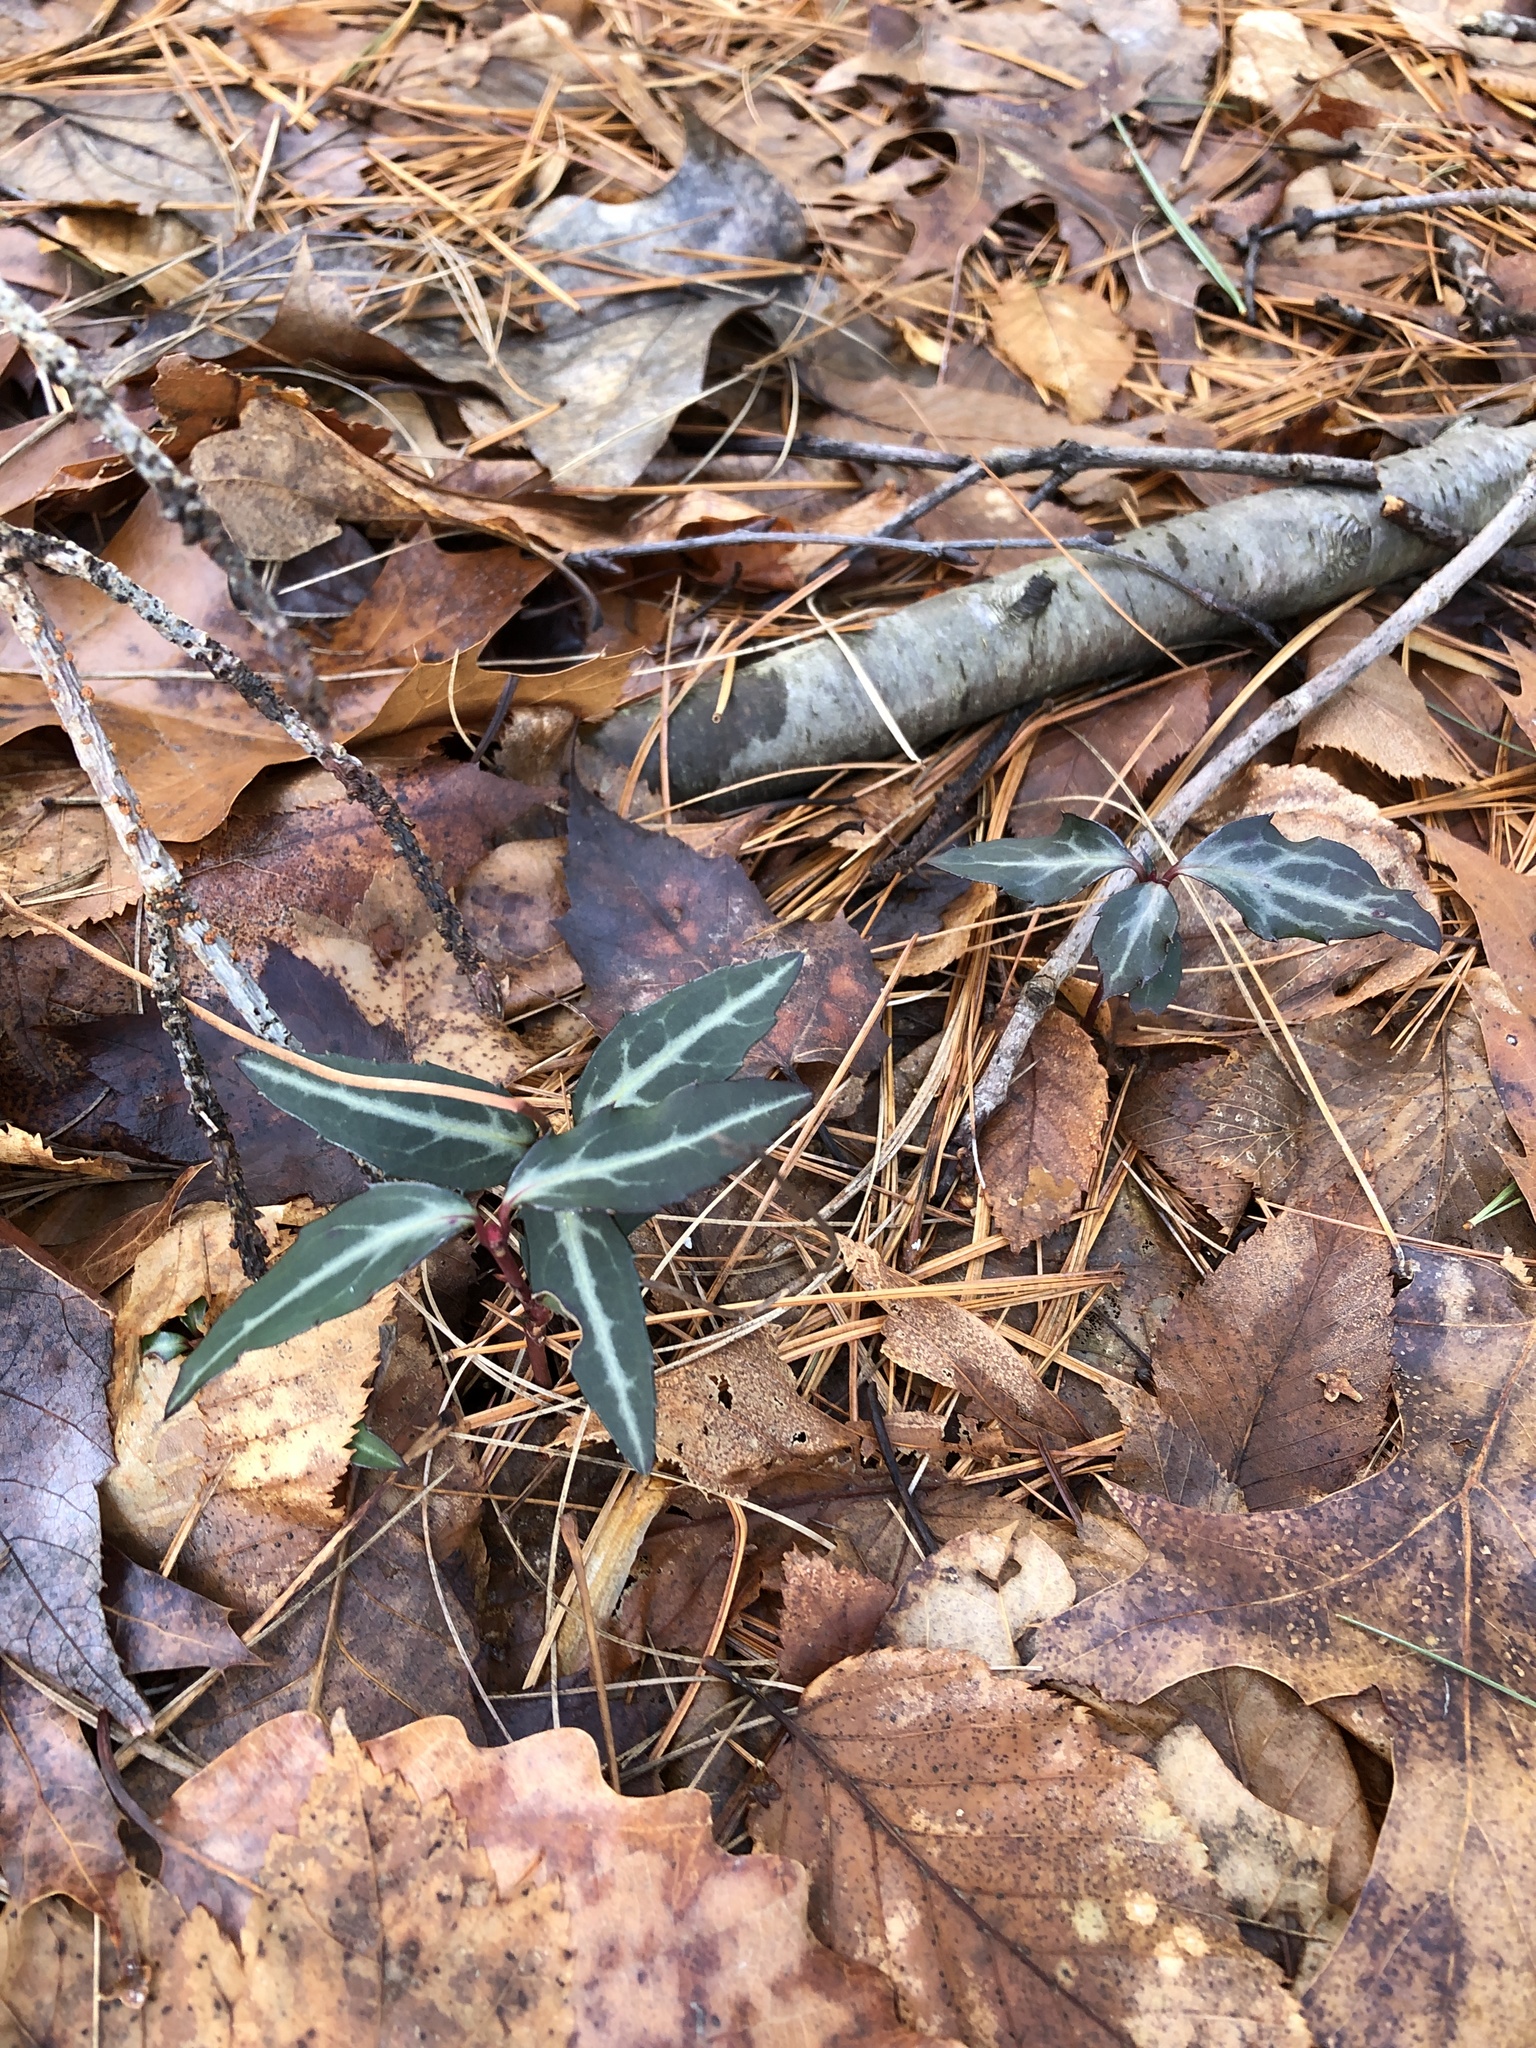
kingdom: Plantae
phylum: Tracheophyta
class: Magnoliopsida
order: Ericales
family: Ericaceae
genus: Chimaphila
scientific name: Chimaphila maculata
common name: Spotted pipsissewa
